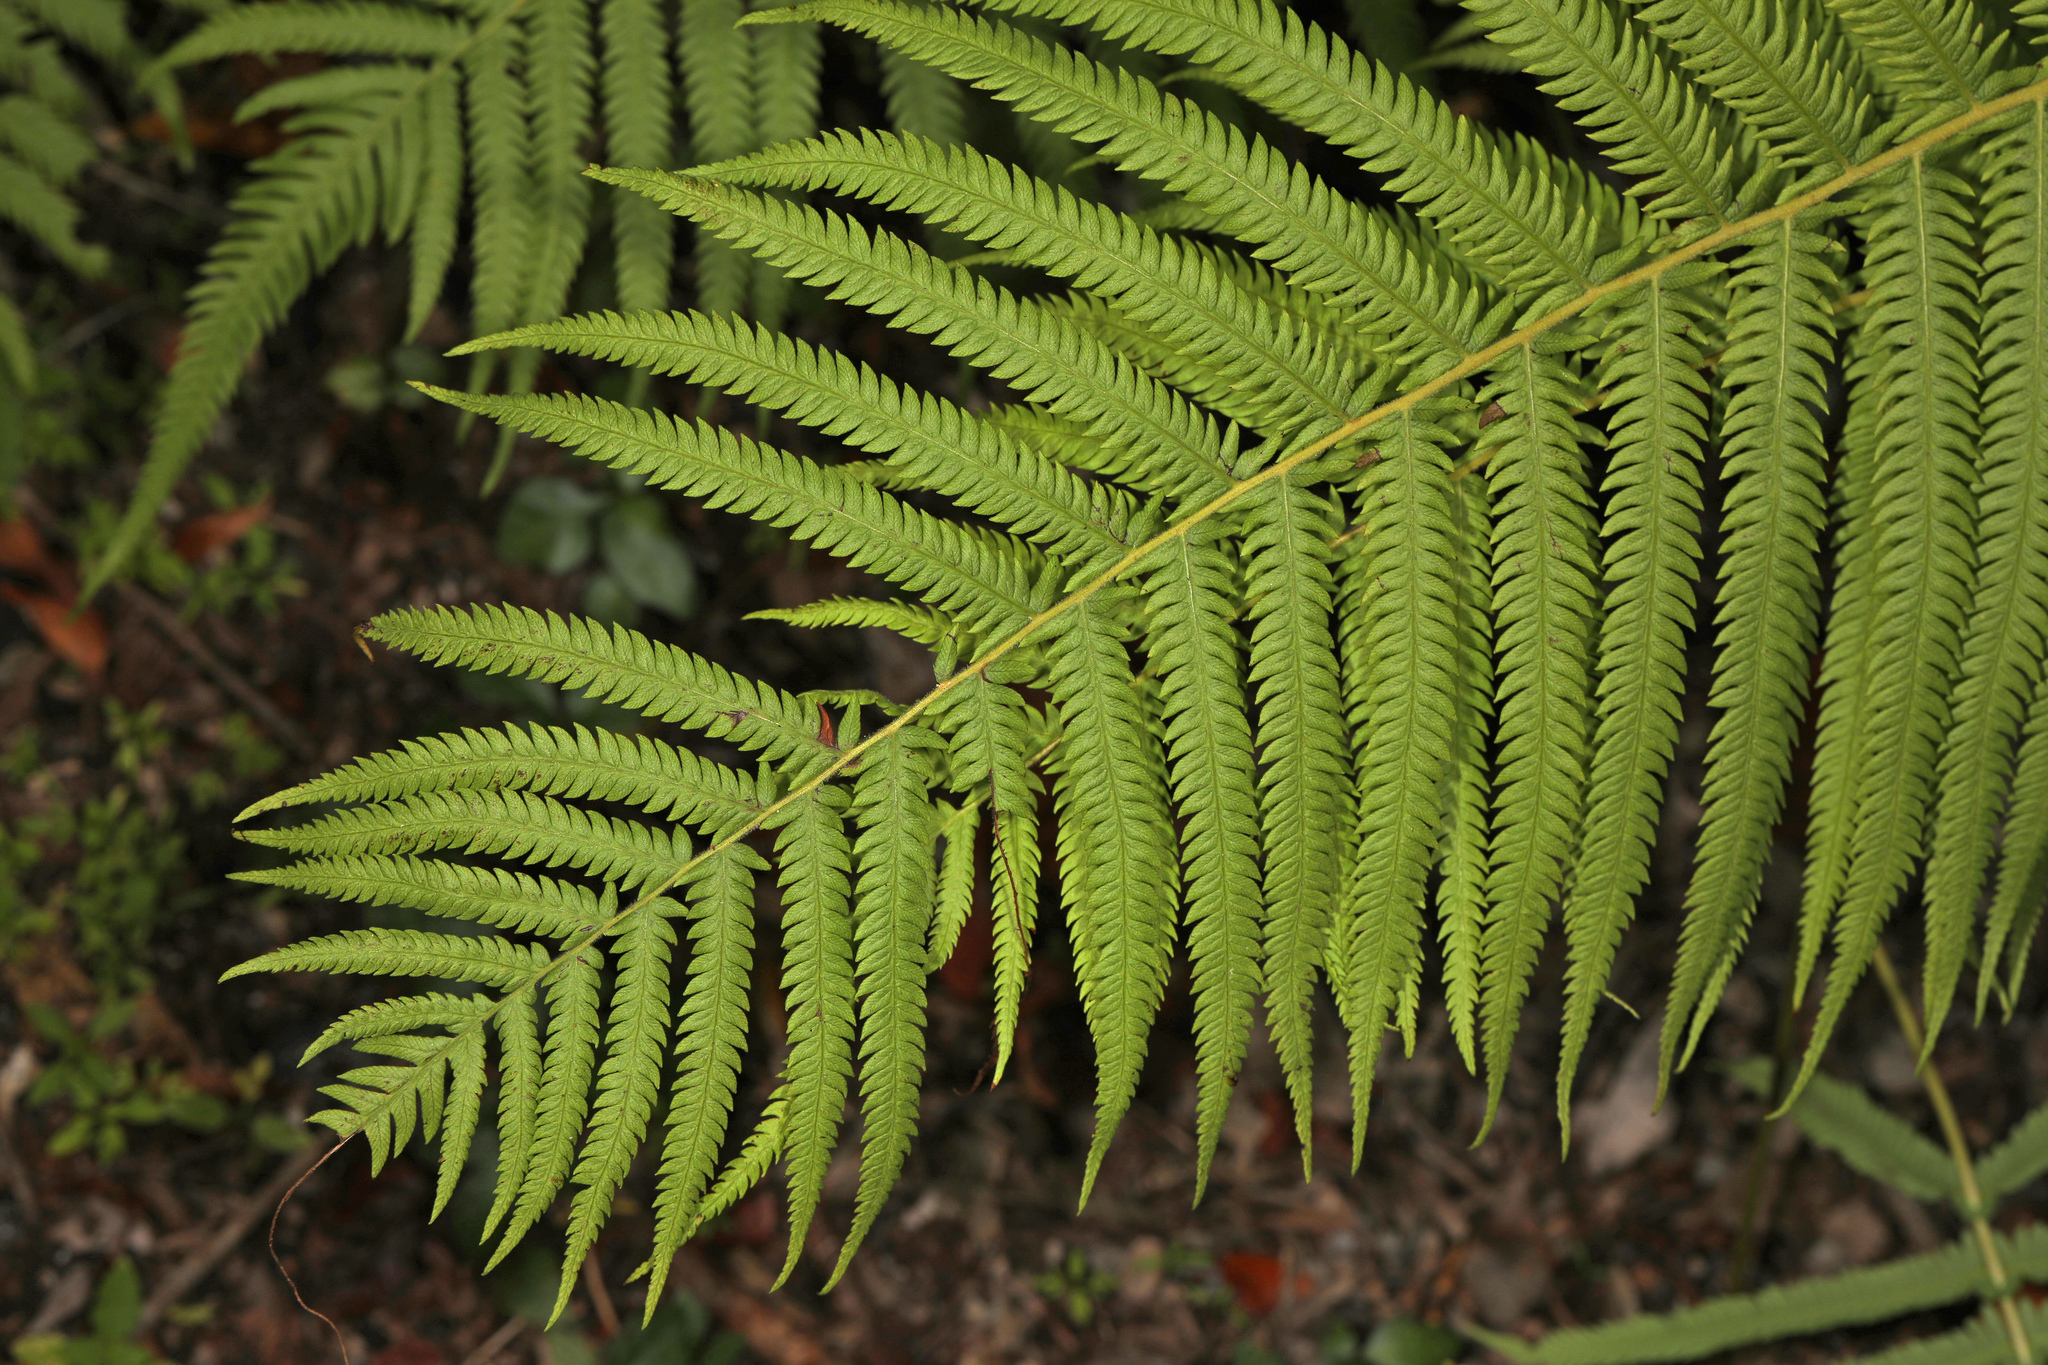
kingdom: Plantae
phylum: Tracheophyta
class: Polypodiopsida
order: Polypodiales
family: Thelypteridaceae
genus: Pelazoneuron
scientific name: Pelazoneuron ovatum
